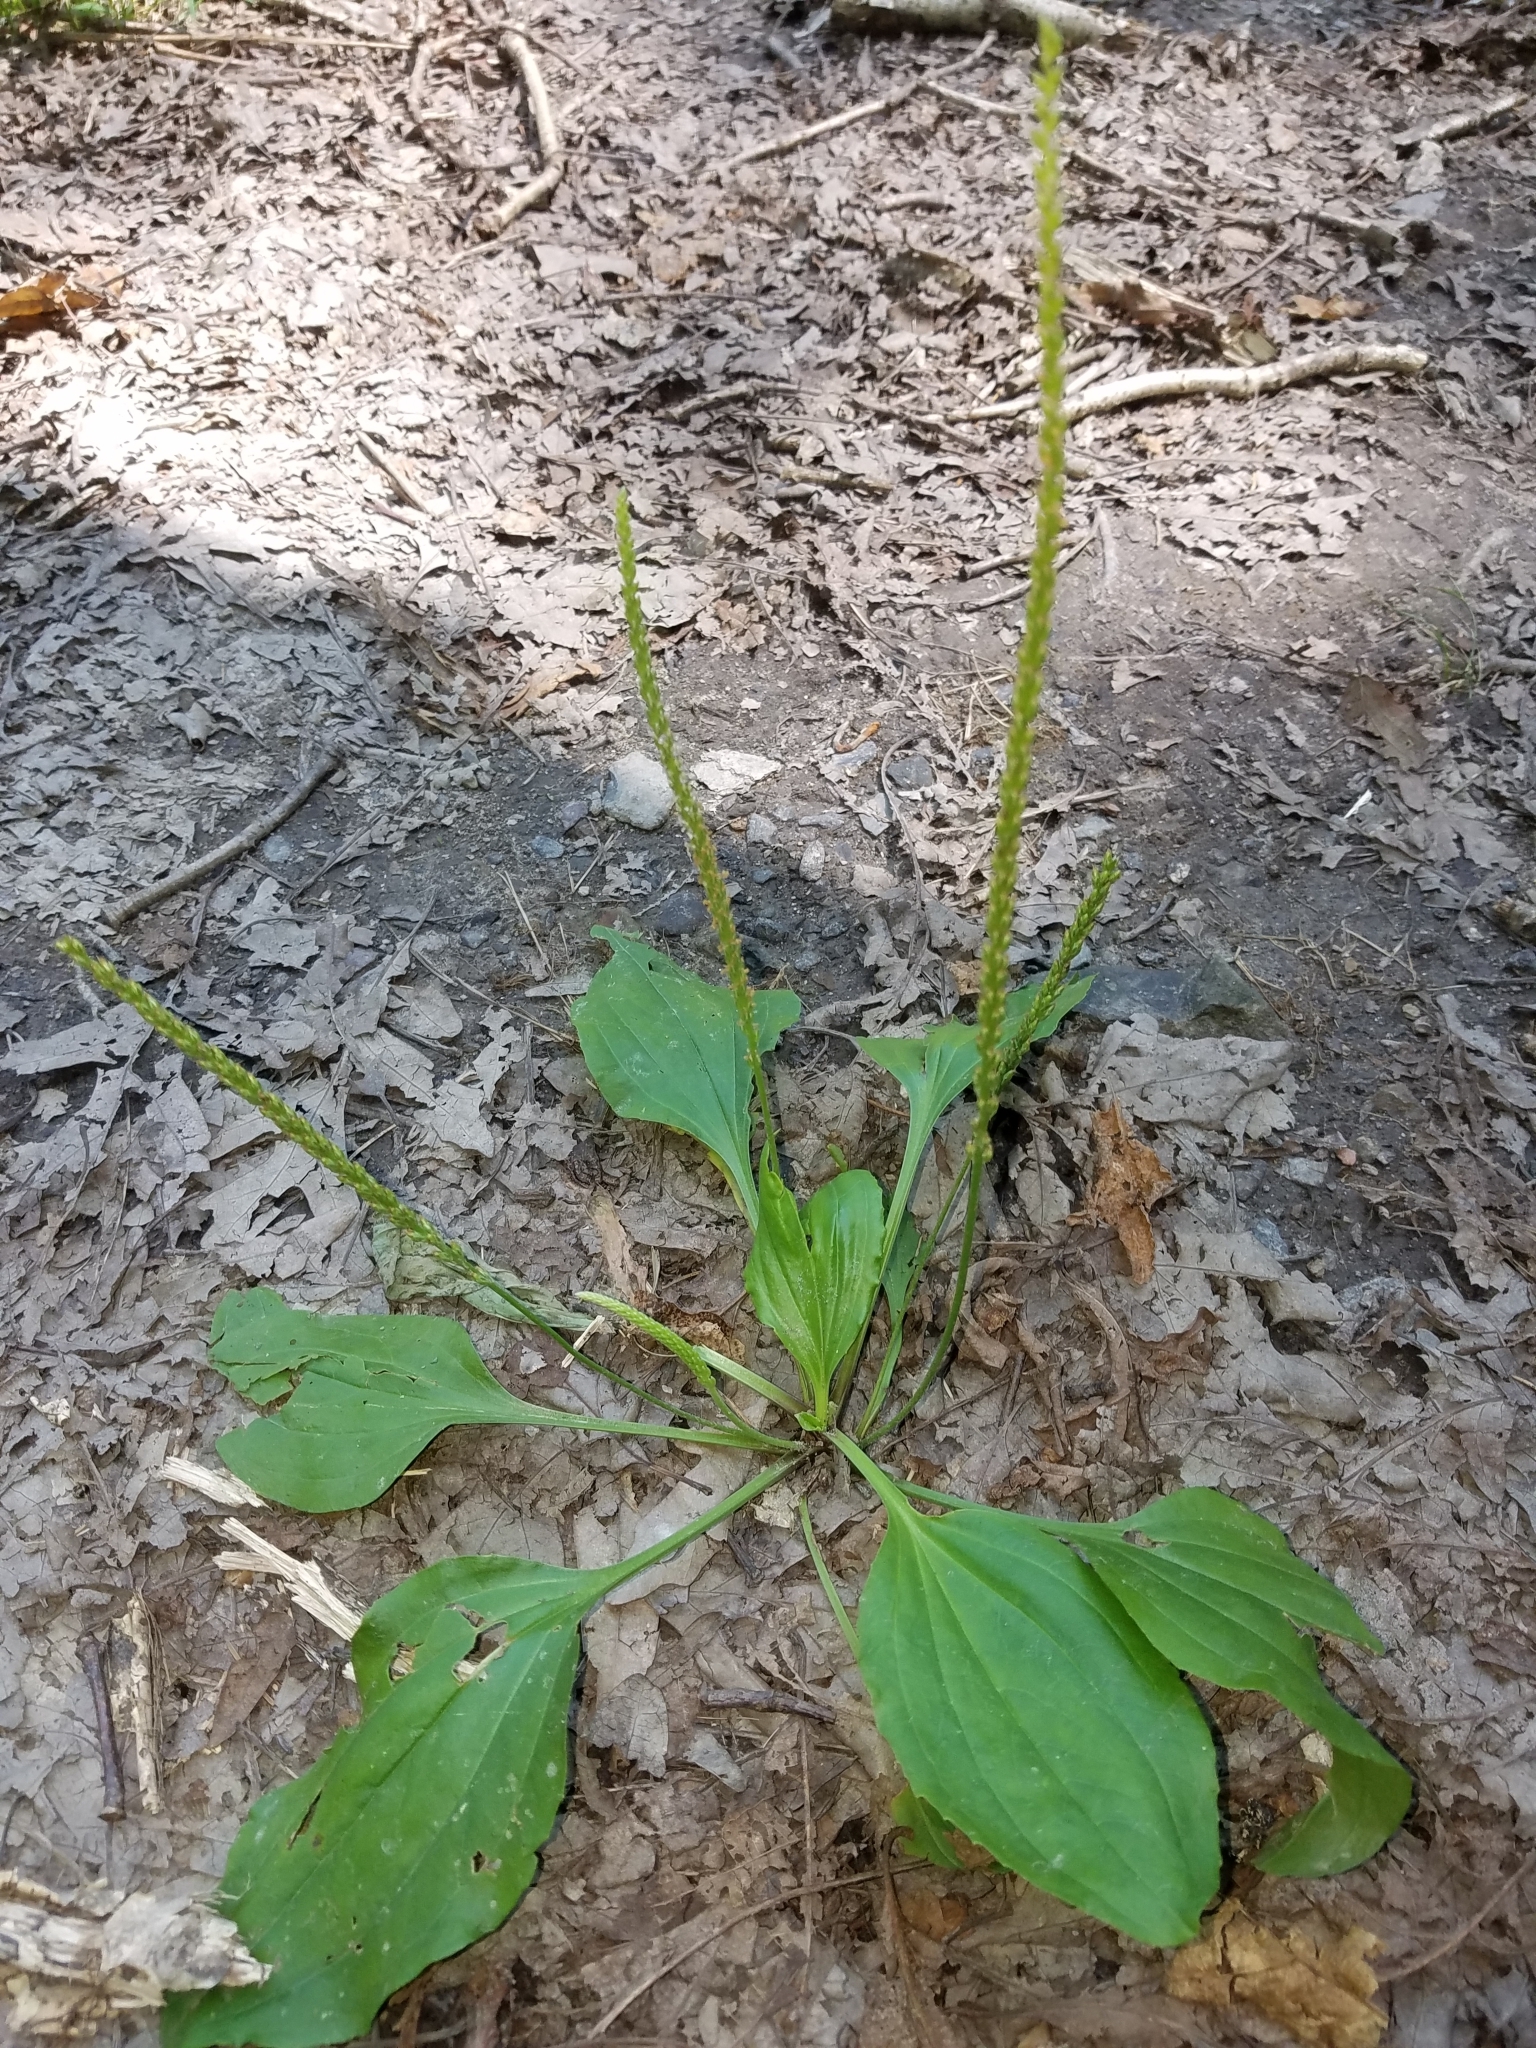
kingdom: Plantae
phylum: Tracheophyta
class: Magnoliopsida
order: Lamiales
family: Plantaginaceae
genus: Plantago
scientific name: Plantago major
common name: Common plantain
